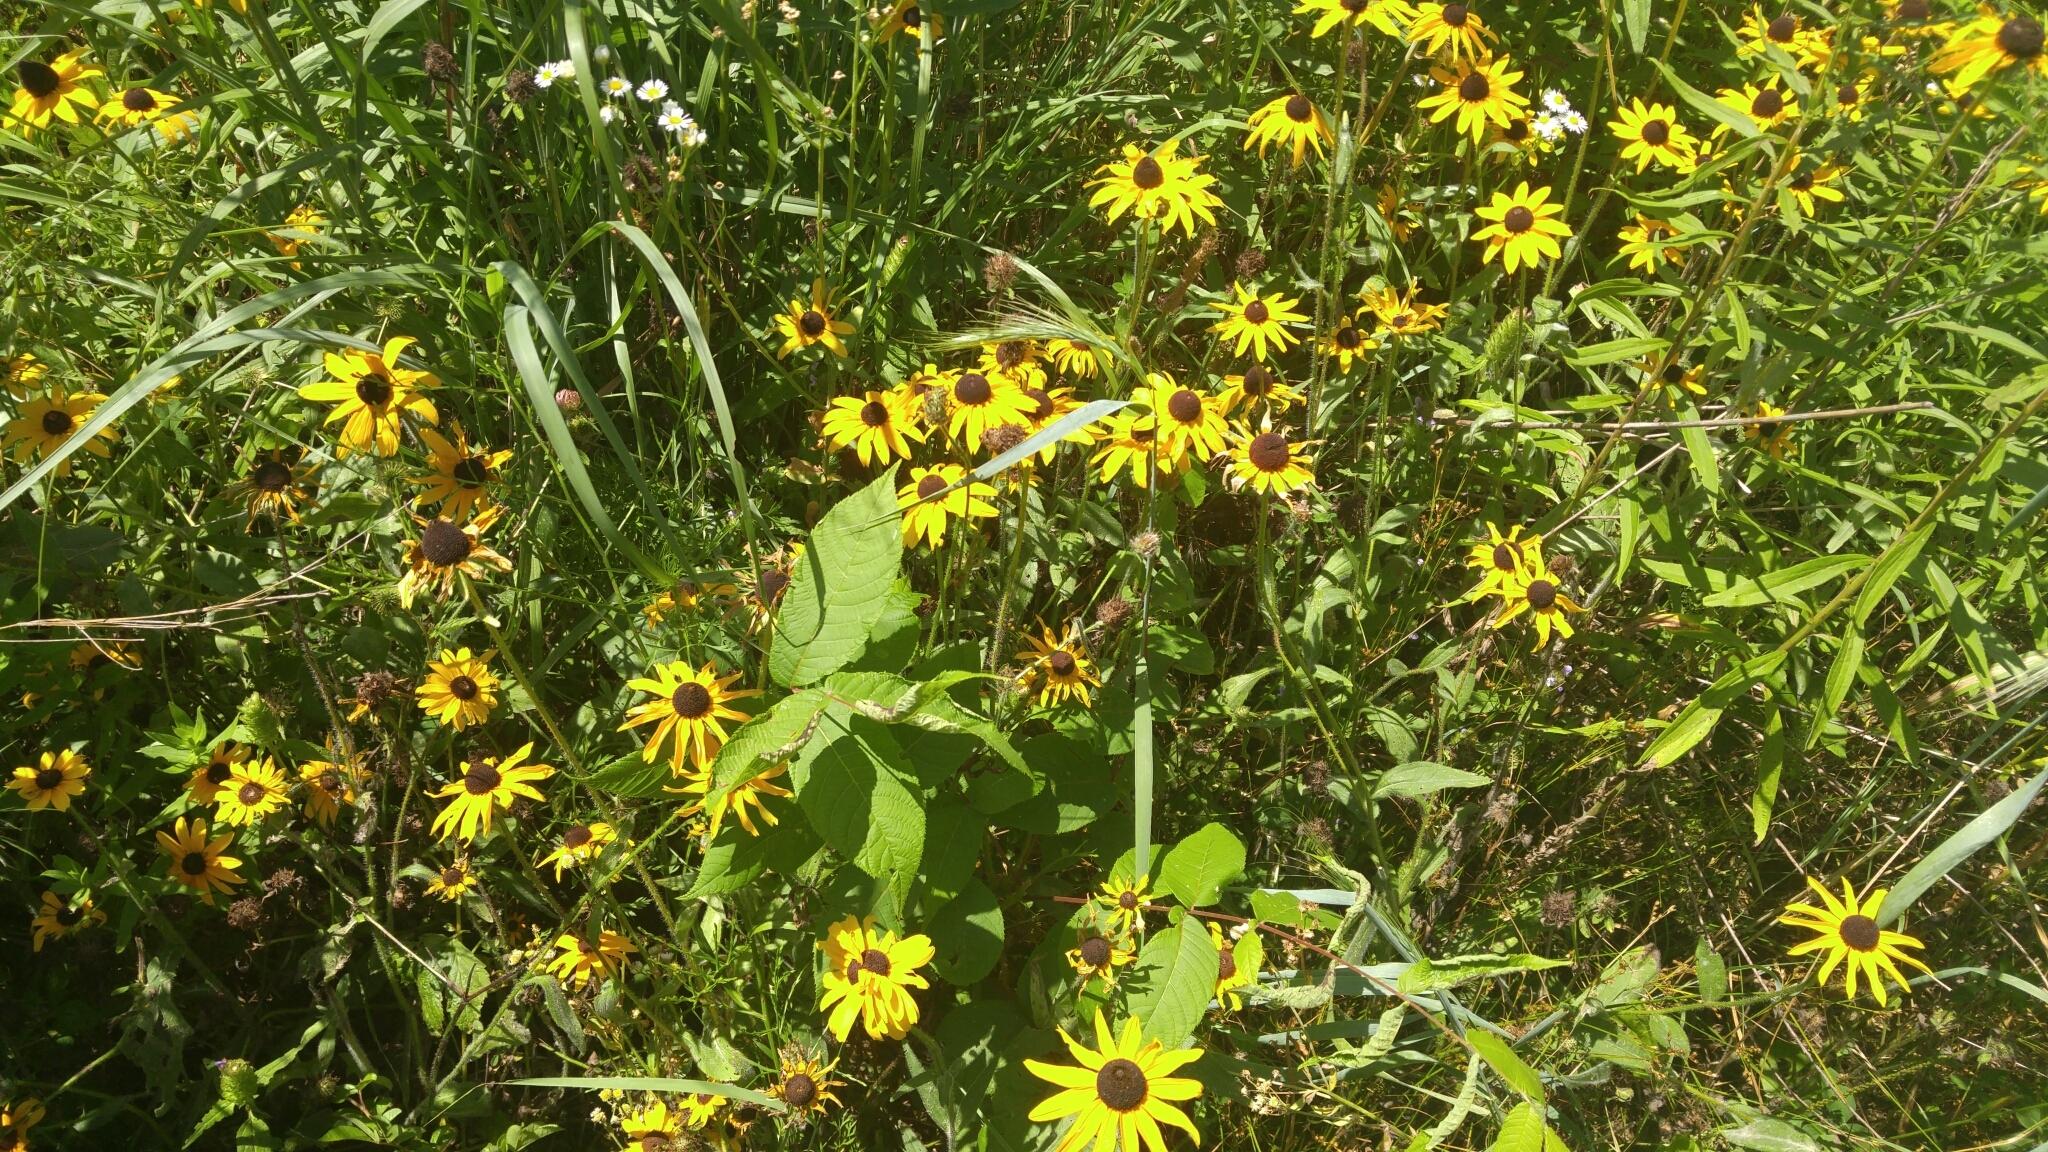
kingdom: Plantae
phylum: Tracheophyta
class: Magnoliopsida
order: Asterales
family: Asteraceae
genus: Rudbeckia
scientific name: Rudbeckia hirta
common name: Black-eyed-susan
